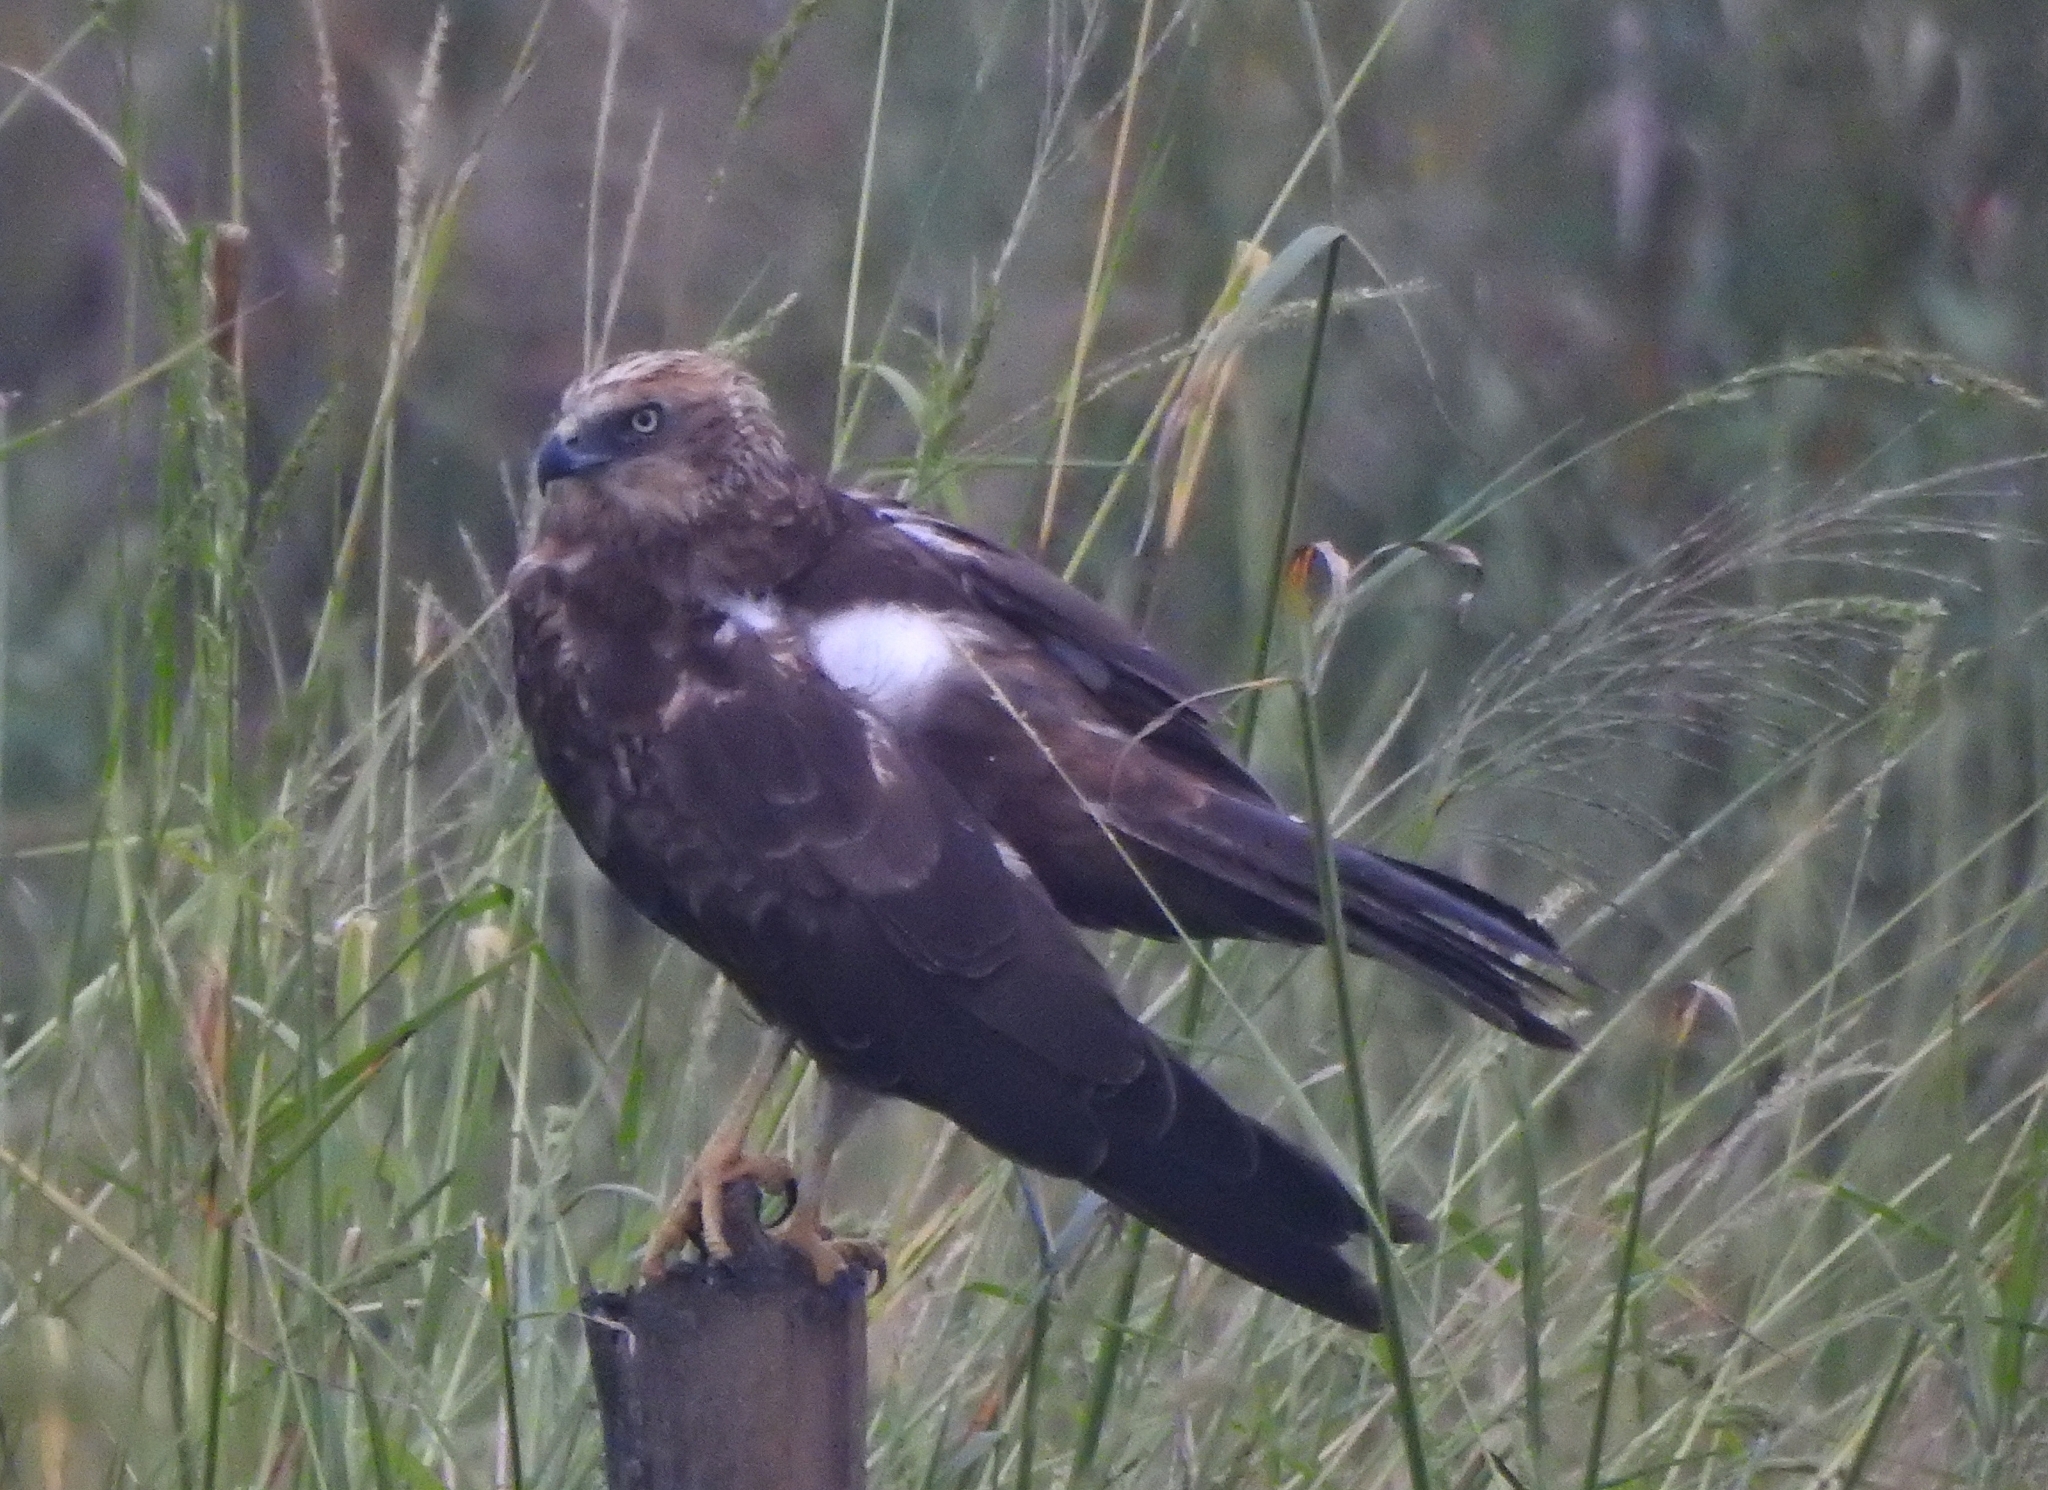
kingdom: Animalia
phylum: Chordata
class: Aves
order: Accipitriformes
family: Accipitridae
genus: Circus
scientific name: Circus aeruginosus
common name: Western marsh harrier
